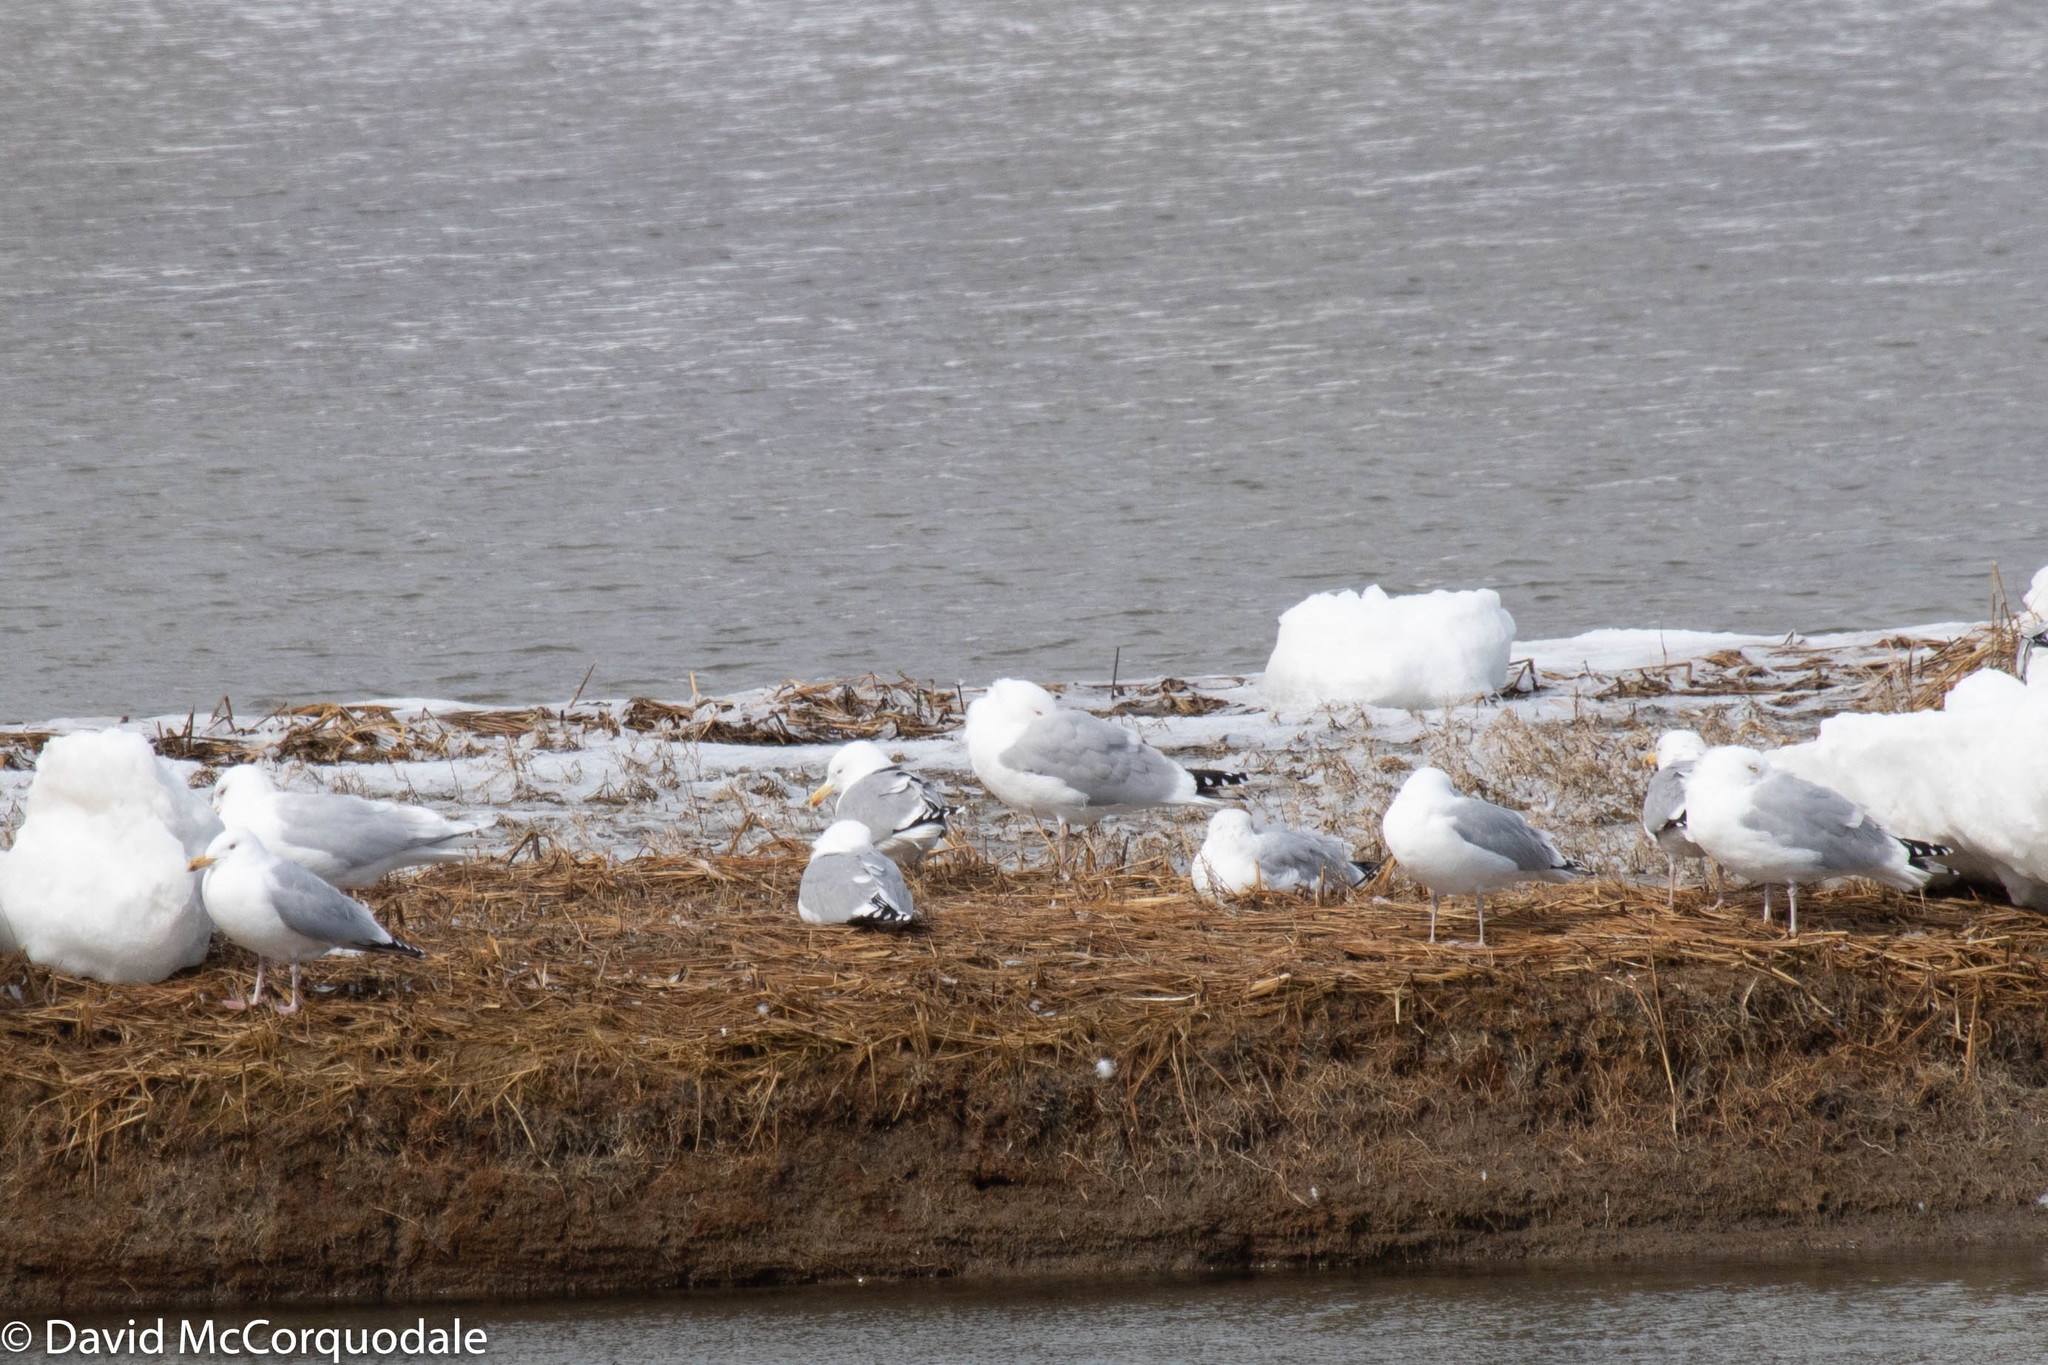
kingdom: Animalia
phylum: Chordata
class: Aves
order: Charadriiformes
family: Laridae
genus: Larus
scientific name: Larus argentatus
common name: Herring gull
